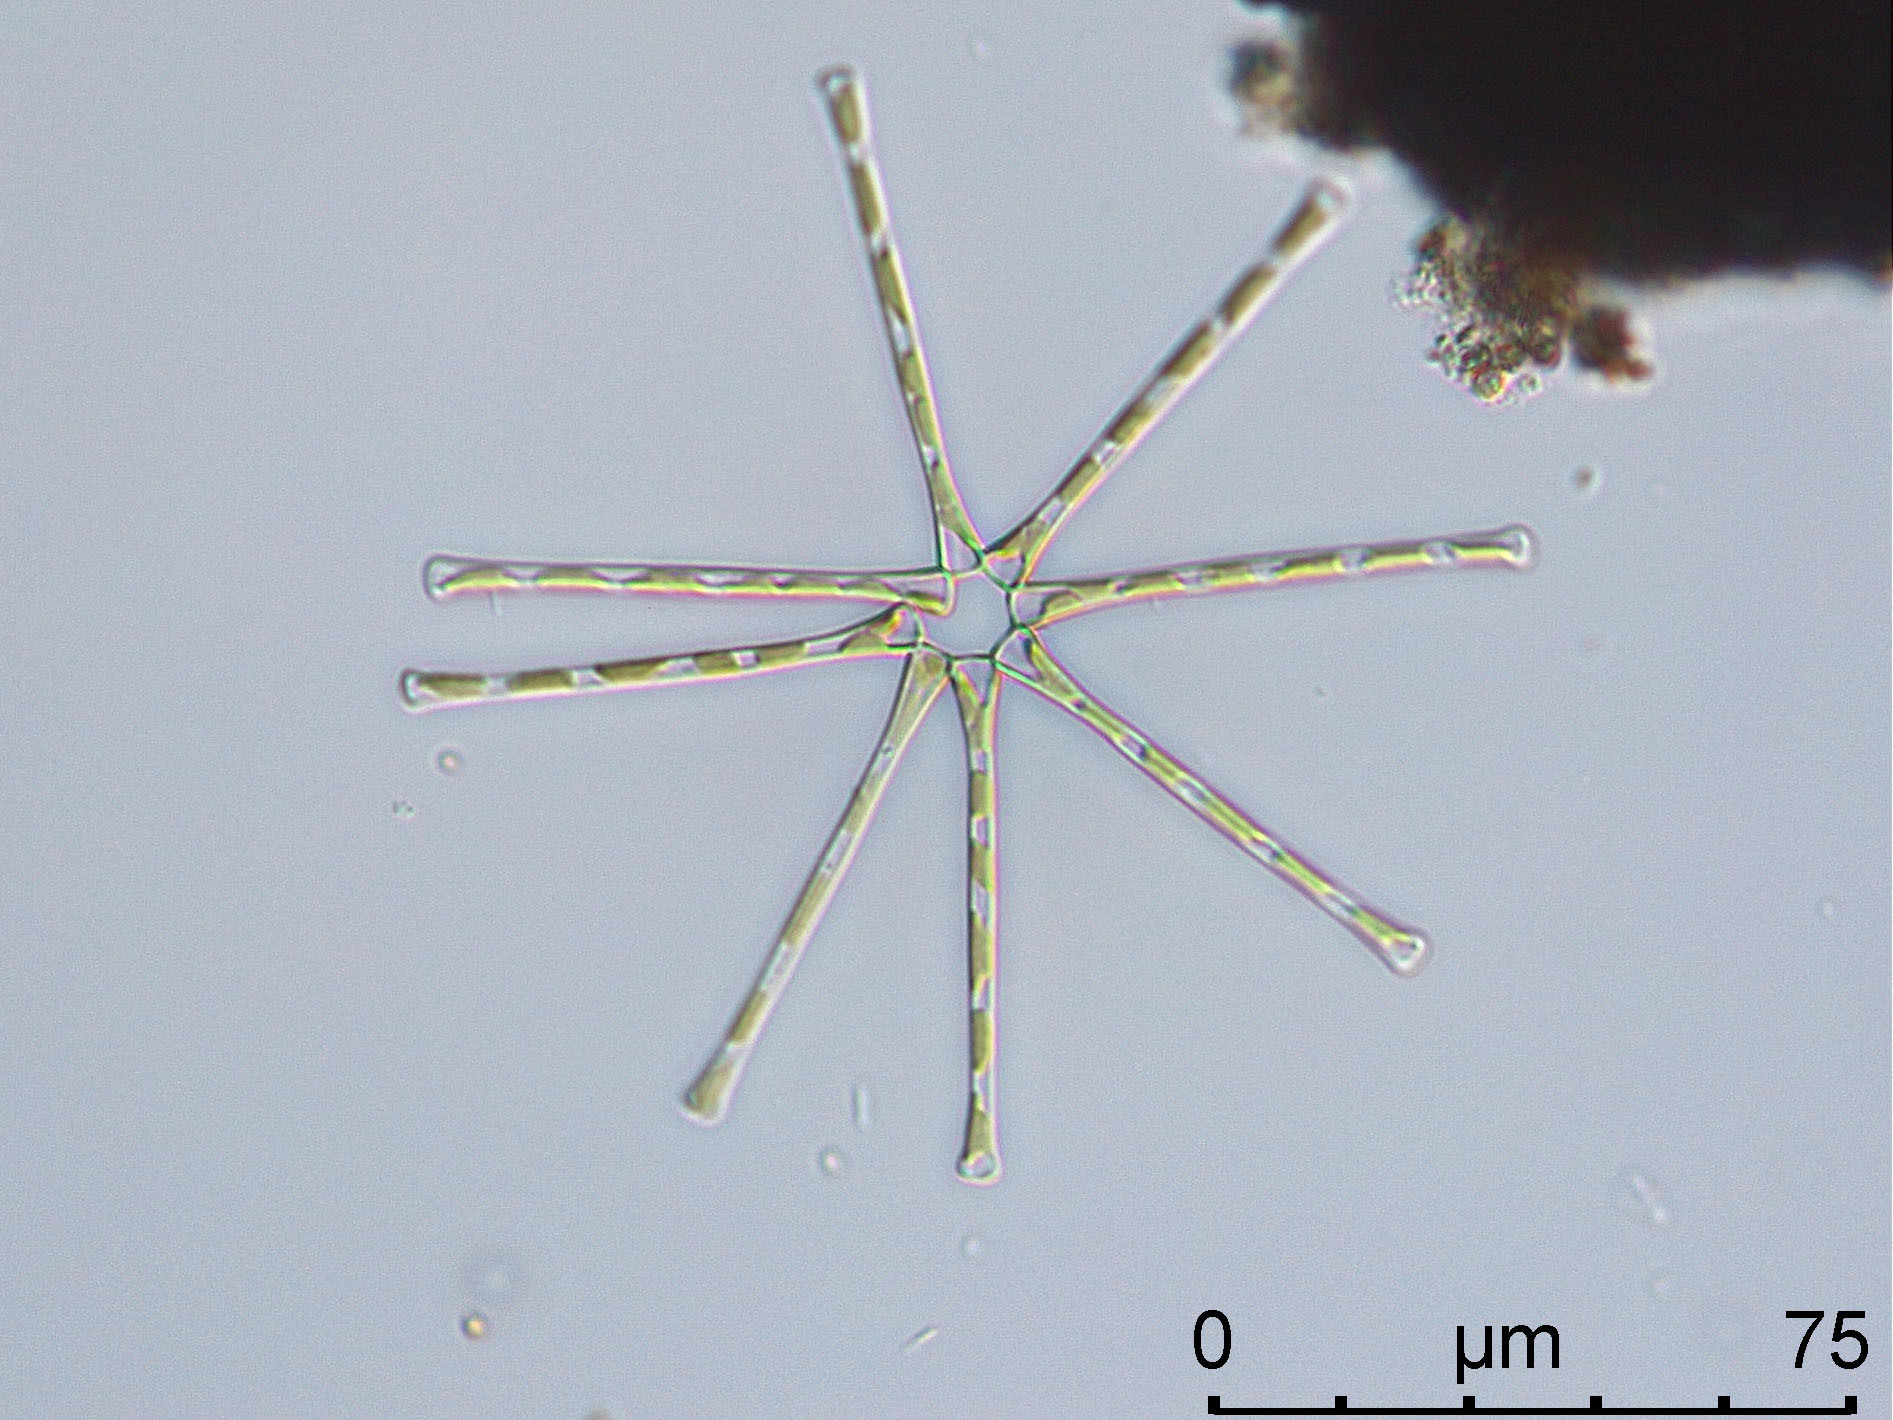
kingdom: Chromista
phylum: Ochrophyta
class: Bacillariophyceae
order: Fragilariales
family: Fragilariaceae
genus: Asterionella
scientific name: Asterionella formosa
